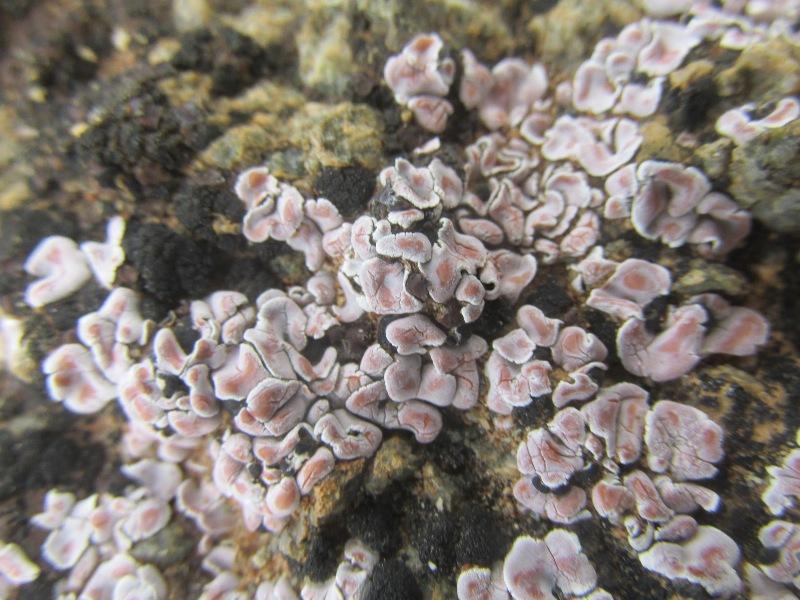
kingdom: Fungi
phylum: Ascomycota
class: Lecanoromycetes
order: Lecanorales
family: Psoraceae
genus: Psora
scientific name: Psora crenata
